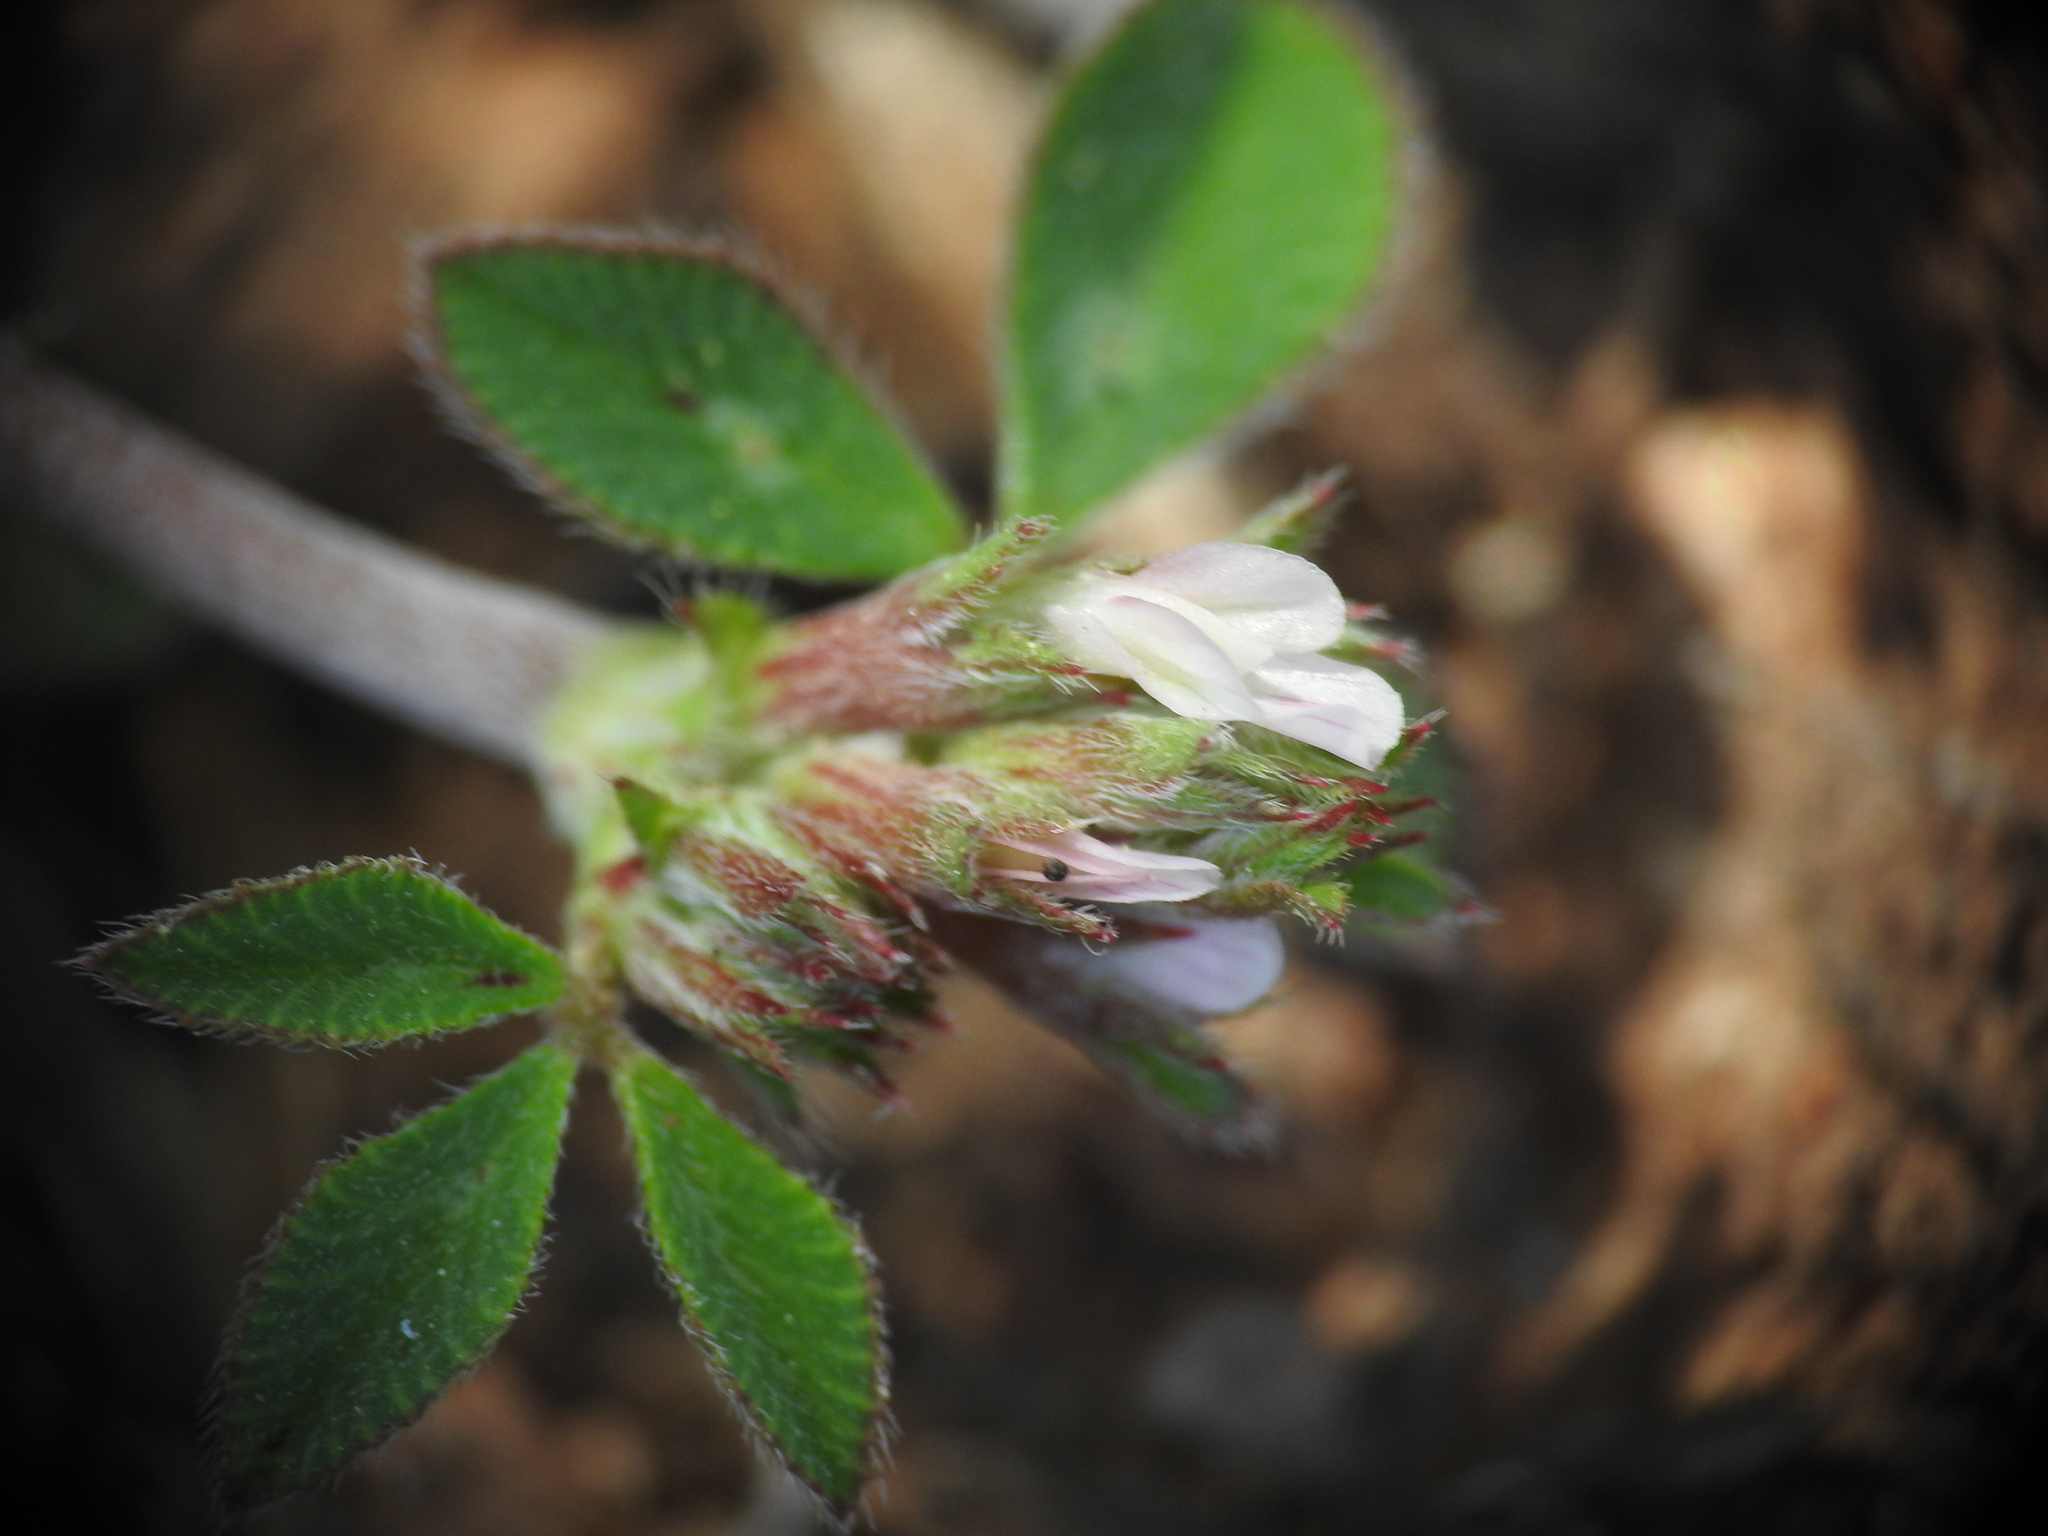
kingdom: Plantae
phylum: Tracheophyta
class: Magnoliopsida
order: Fabales
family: Fabaceae
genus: Trifolium
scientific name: Trifolium scabrum
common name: Rough clover
